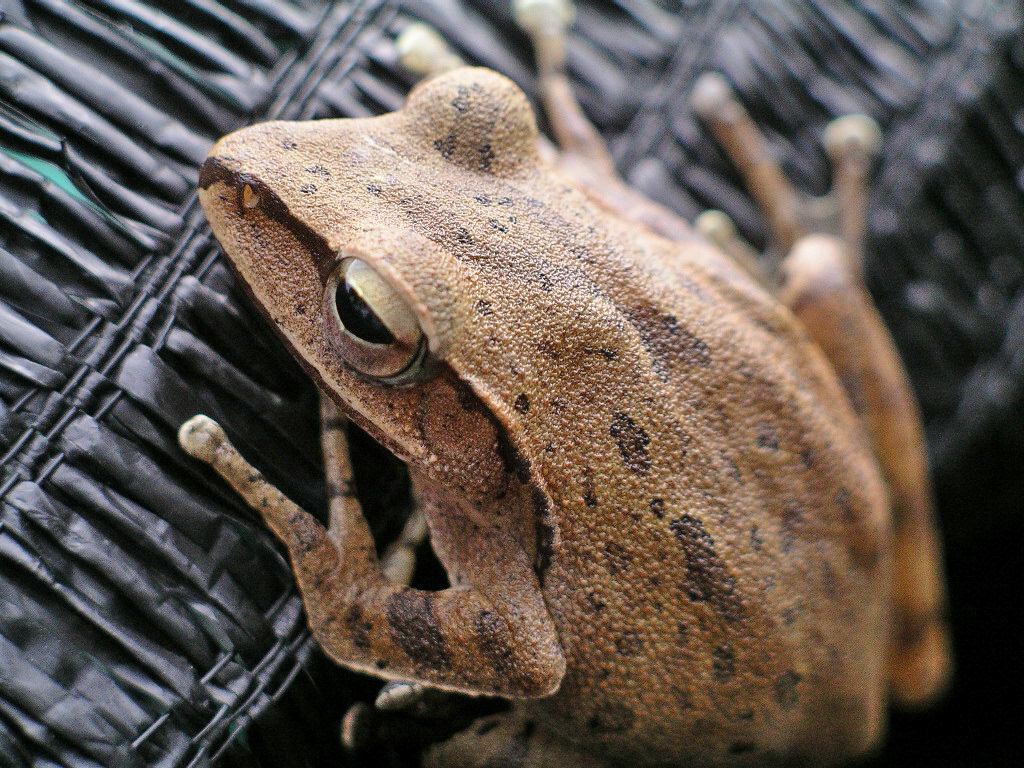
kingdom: Animalia
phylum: Chordata
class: Amphibia
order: Anura
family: Rhacophoridae
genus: Polypedates
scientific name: Polypedates braueri
